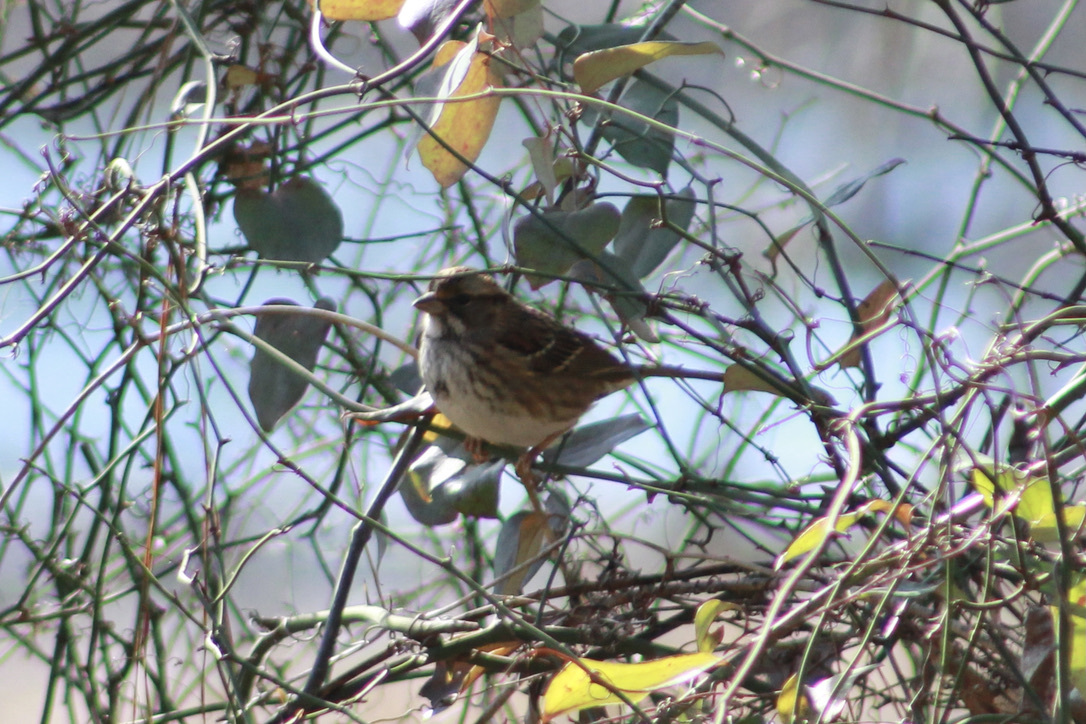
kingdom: Animalia
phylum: Chordata
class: Aves
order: Passeriformes
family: Passerellidae
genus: Zonotrichia
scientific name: Zonotrichia albicollis
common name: White-throated sparrow
